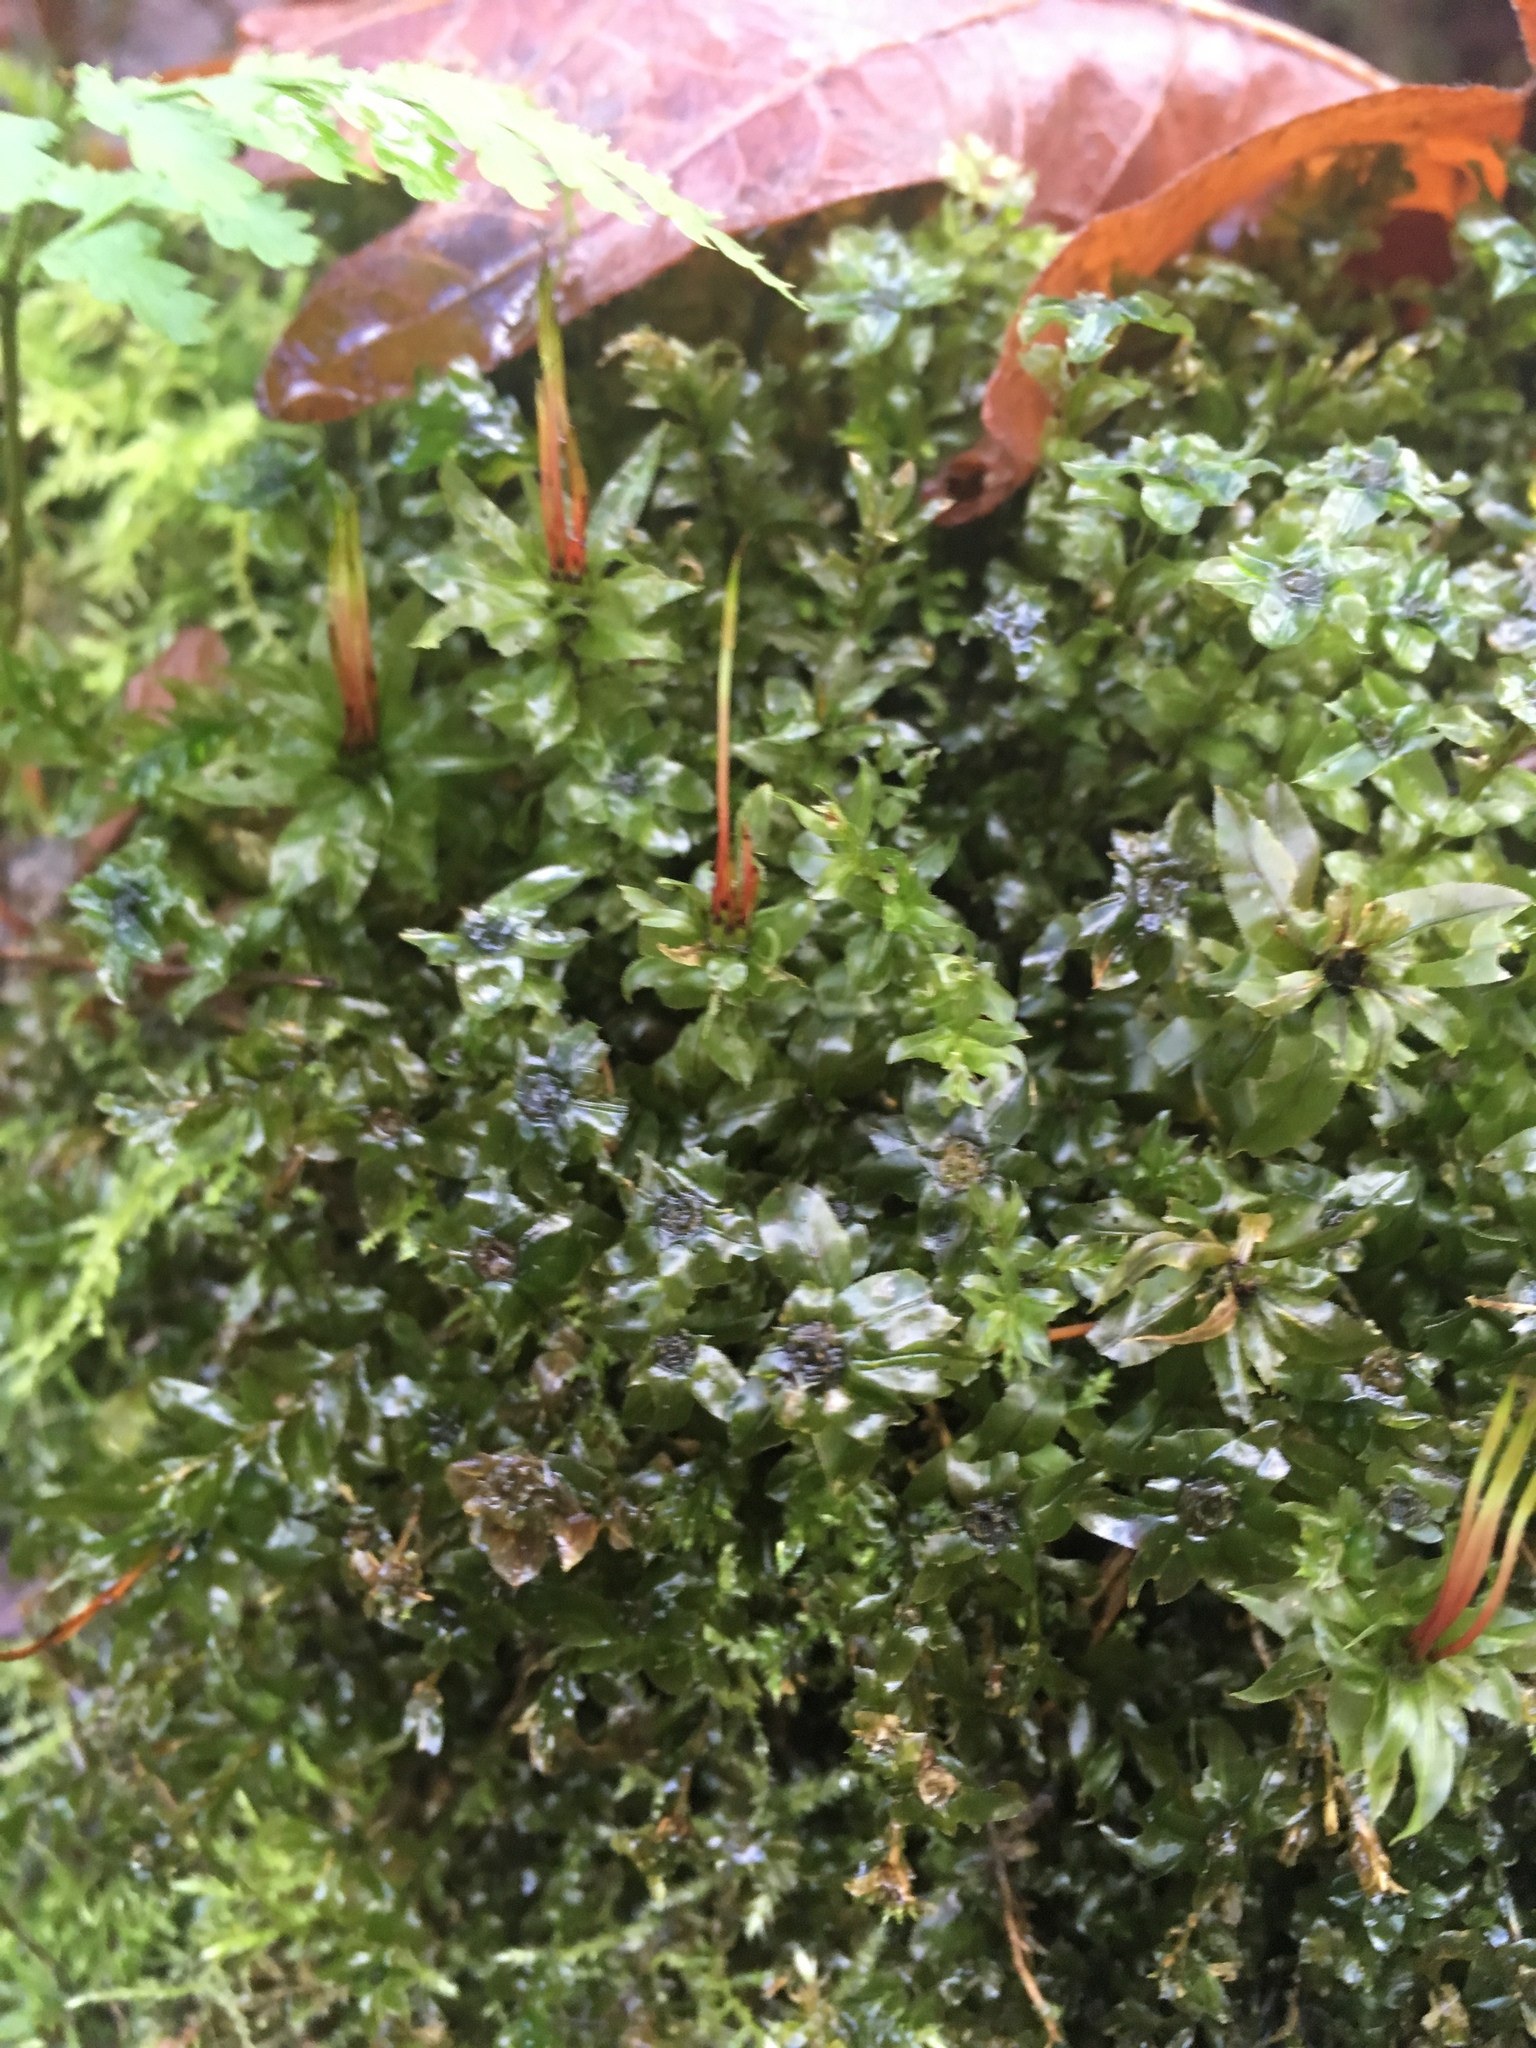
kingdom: Plantae
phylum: Bryophyta
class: Bryopsida
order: Bryales
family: Mniaceae
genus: Plagiomnium
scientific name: Plagiomnium insigne
